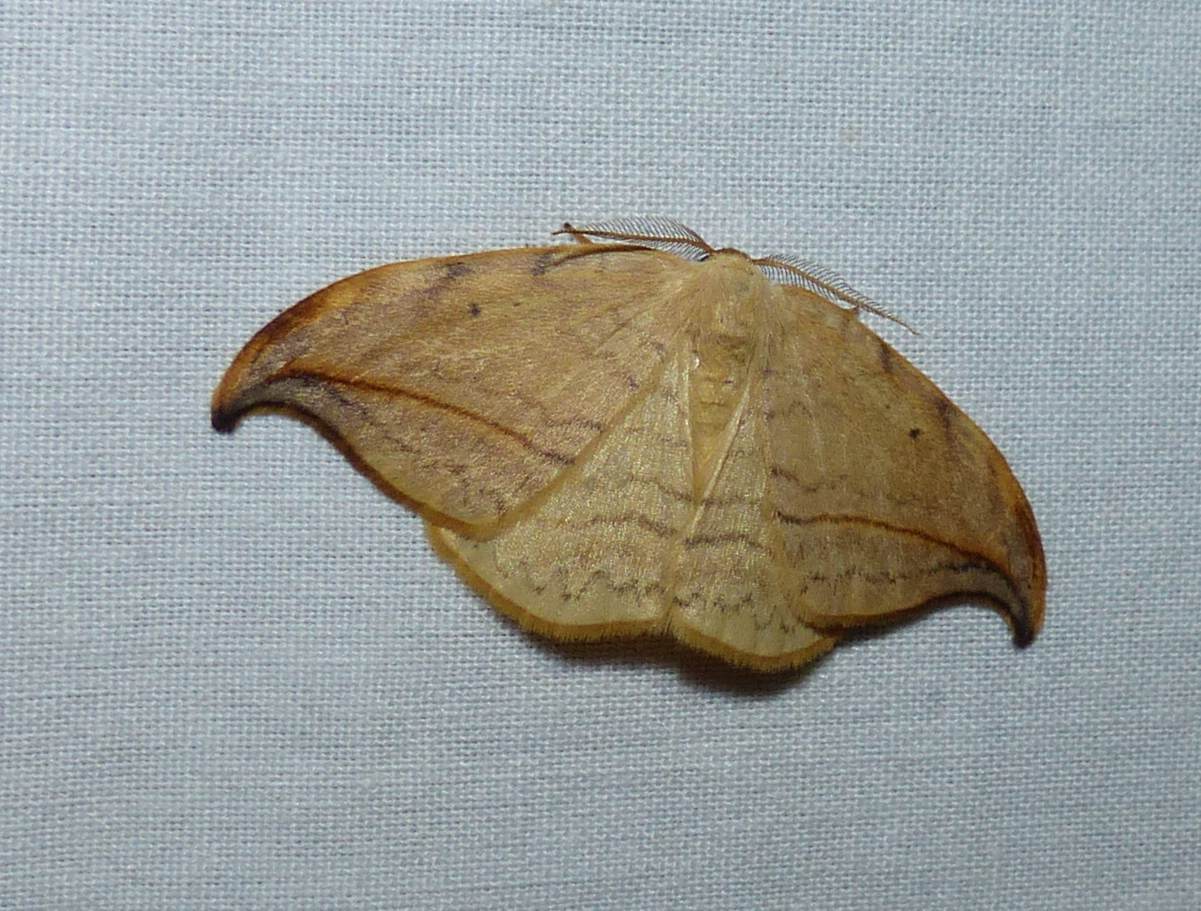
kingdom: Animalia
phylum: Arthropoda
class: Insecta
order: Lepidoptera
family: Drepanidae
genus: Drepana
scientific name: Drepana arcuata
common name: Arched hooktip moth
